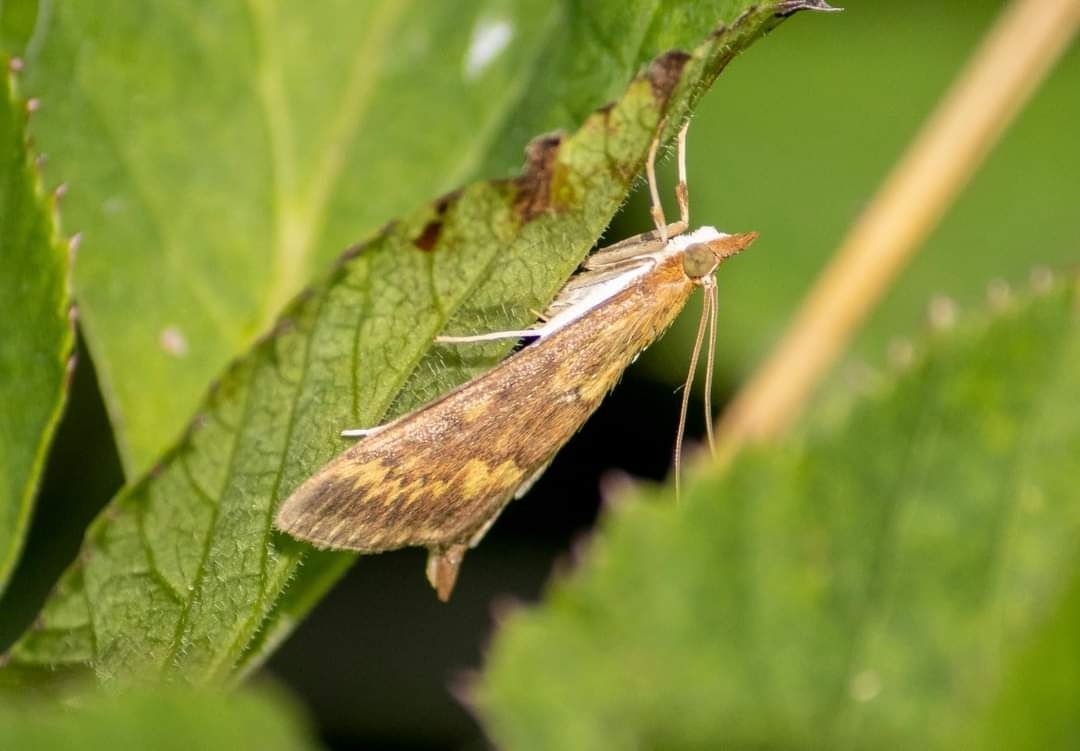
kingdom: Animalia
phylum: Arthropoda
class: Insecta
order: Lepidoptera
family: Crambidae
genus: Ostrinia
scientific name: Ostrinia nubilalis
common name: European corn borer
